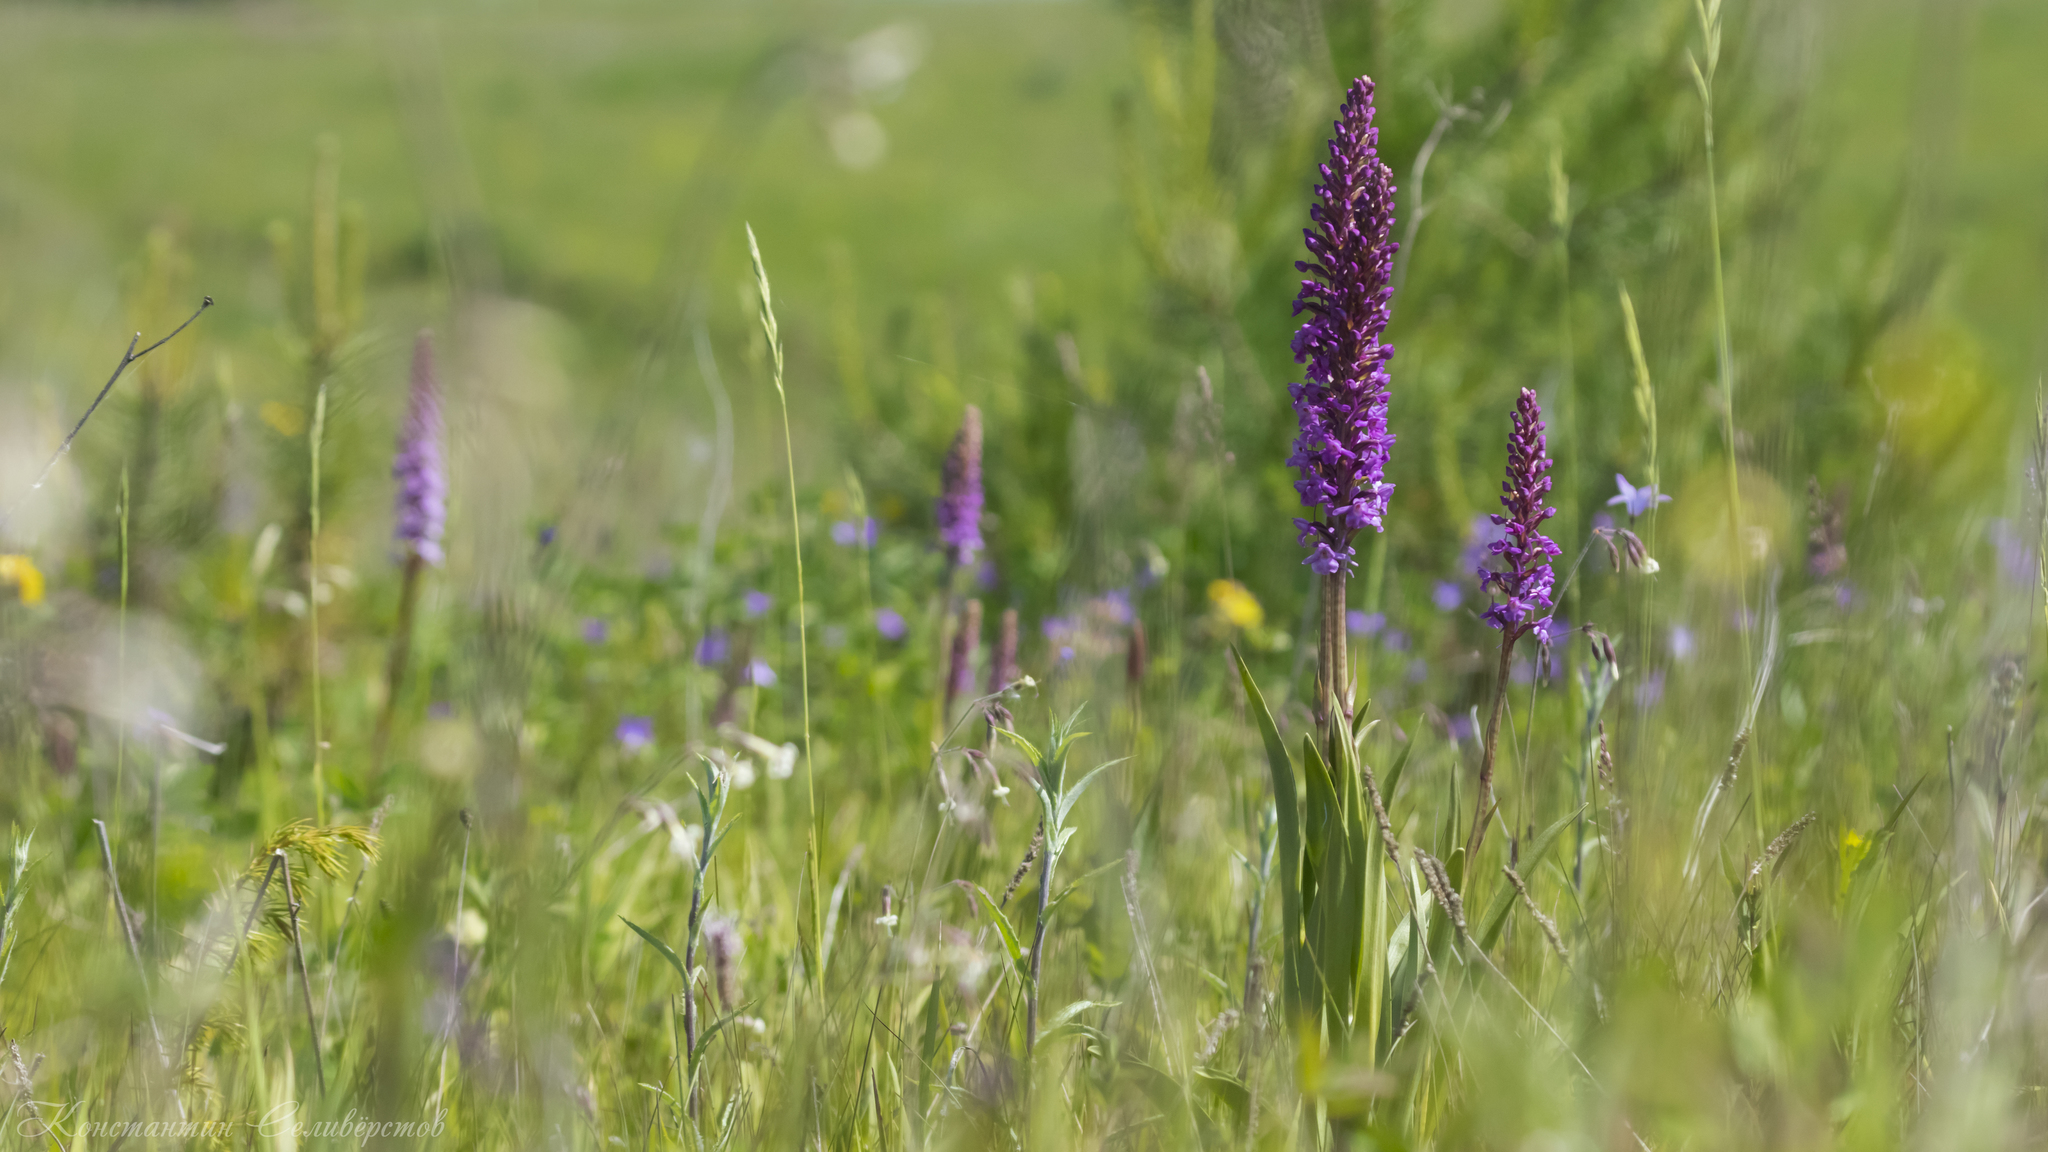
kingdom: Plantae
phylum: Tracheophyta
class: Liliopsida
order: Asparagales
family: Orchidaceae
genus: Gymnadenia
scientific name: Gymnadenia conopsea
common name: Fragrant orchid
